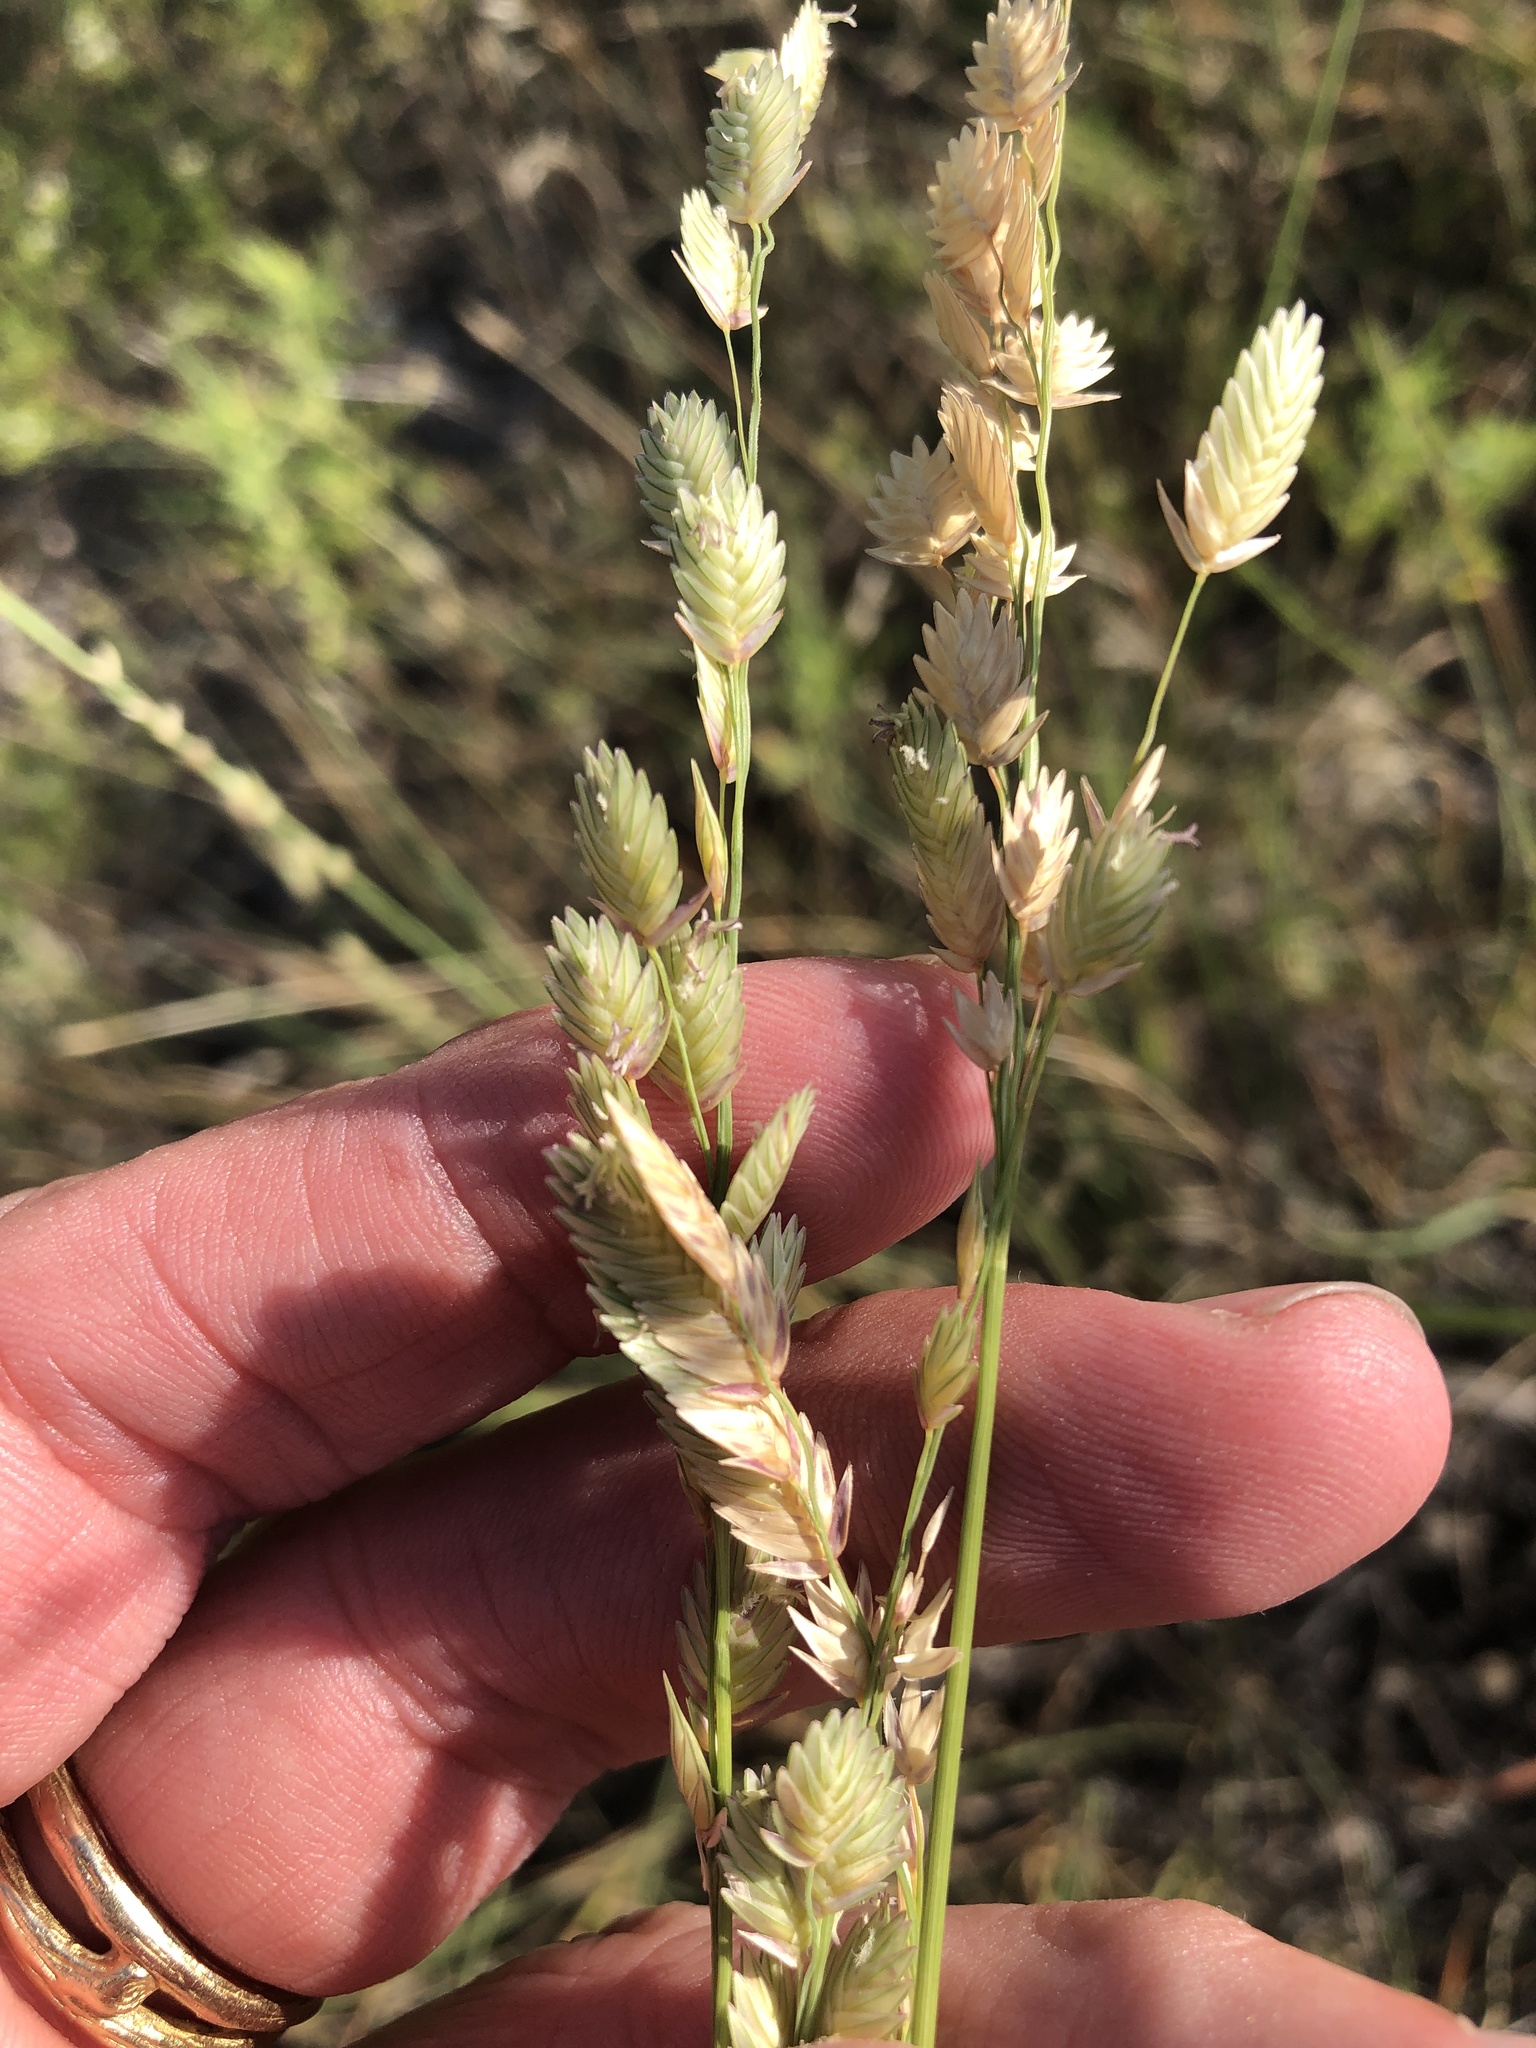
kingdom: Plantae
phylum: Tracheophyta
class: Liliopsida
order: Poales
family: Poaceae
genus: Eragrostis
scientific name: Eragrostis superba
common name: Wilman lovegrass
